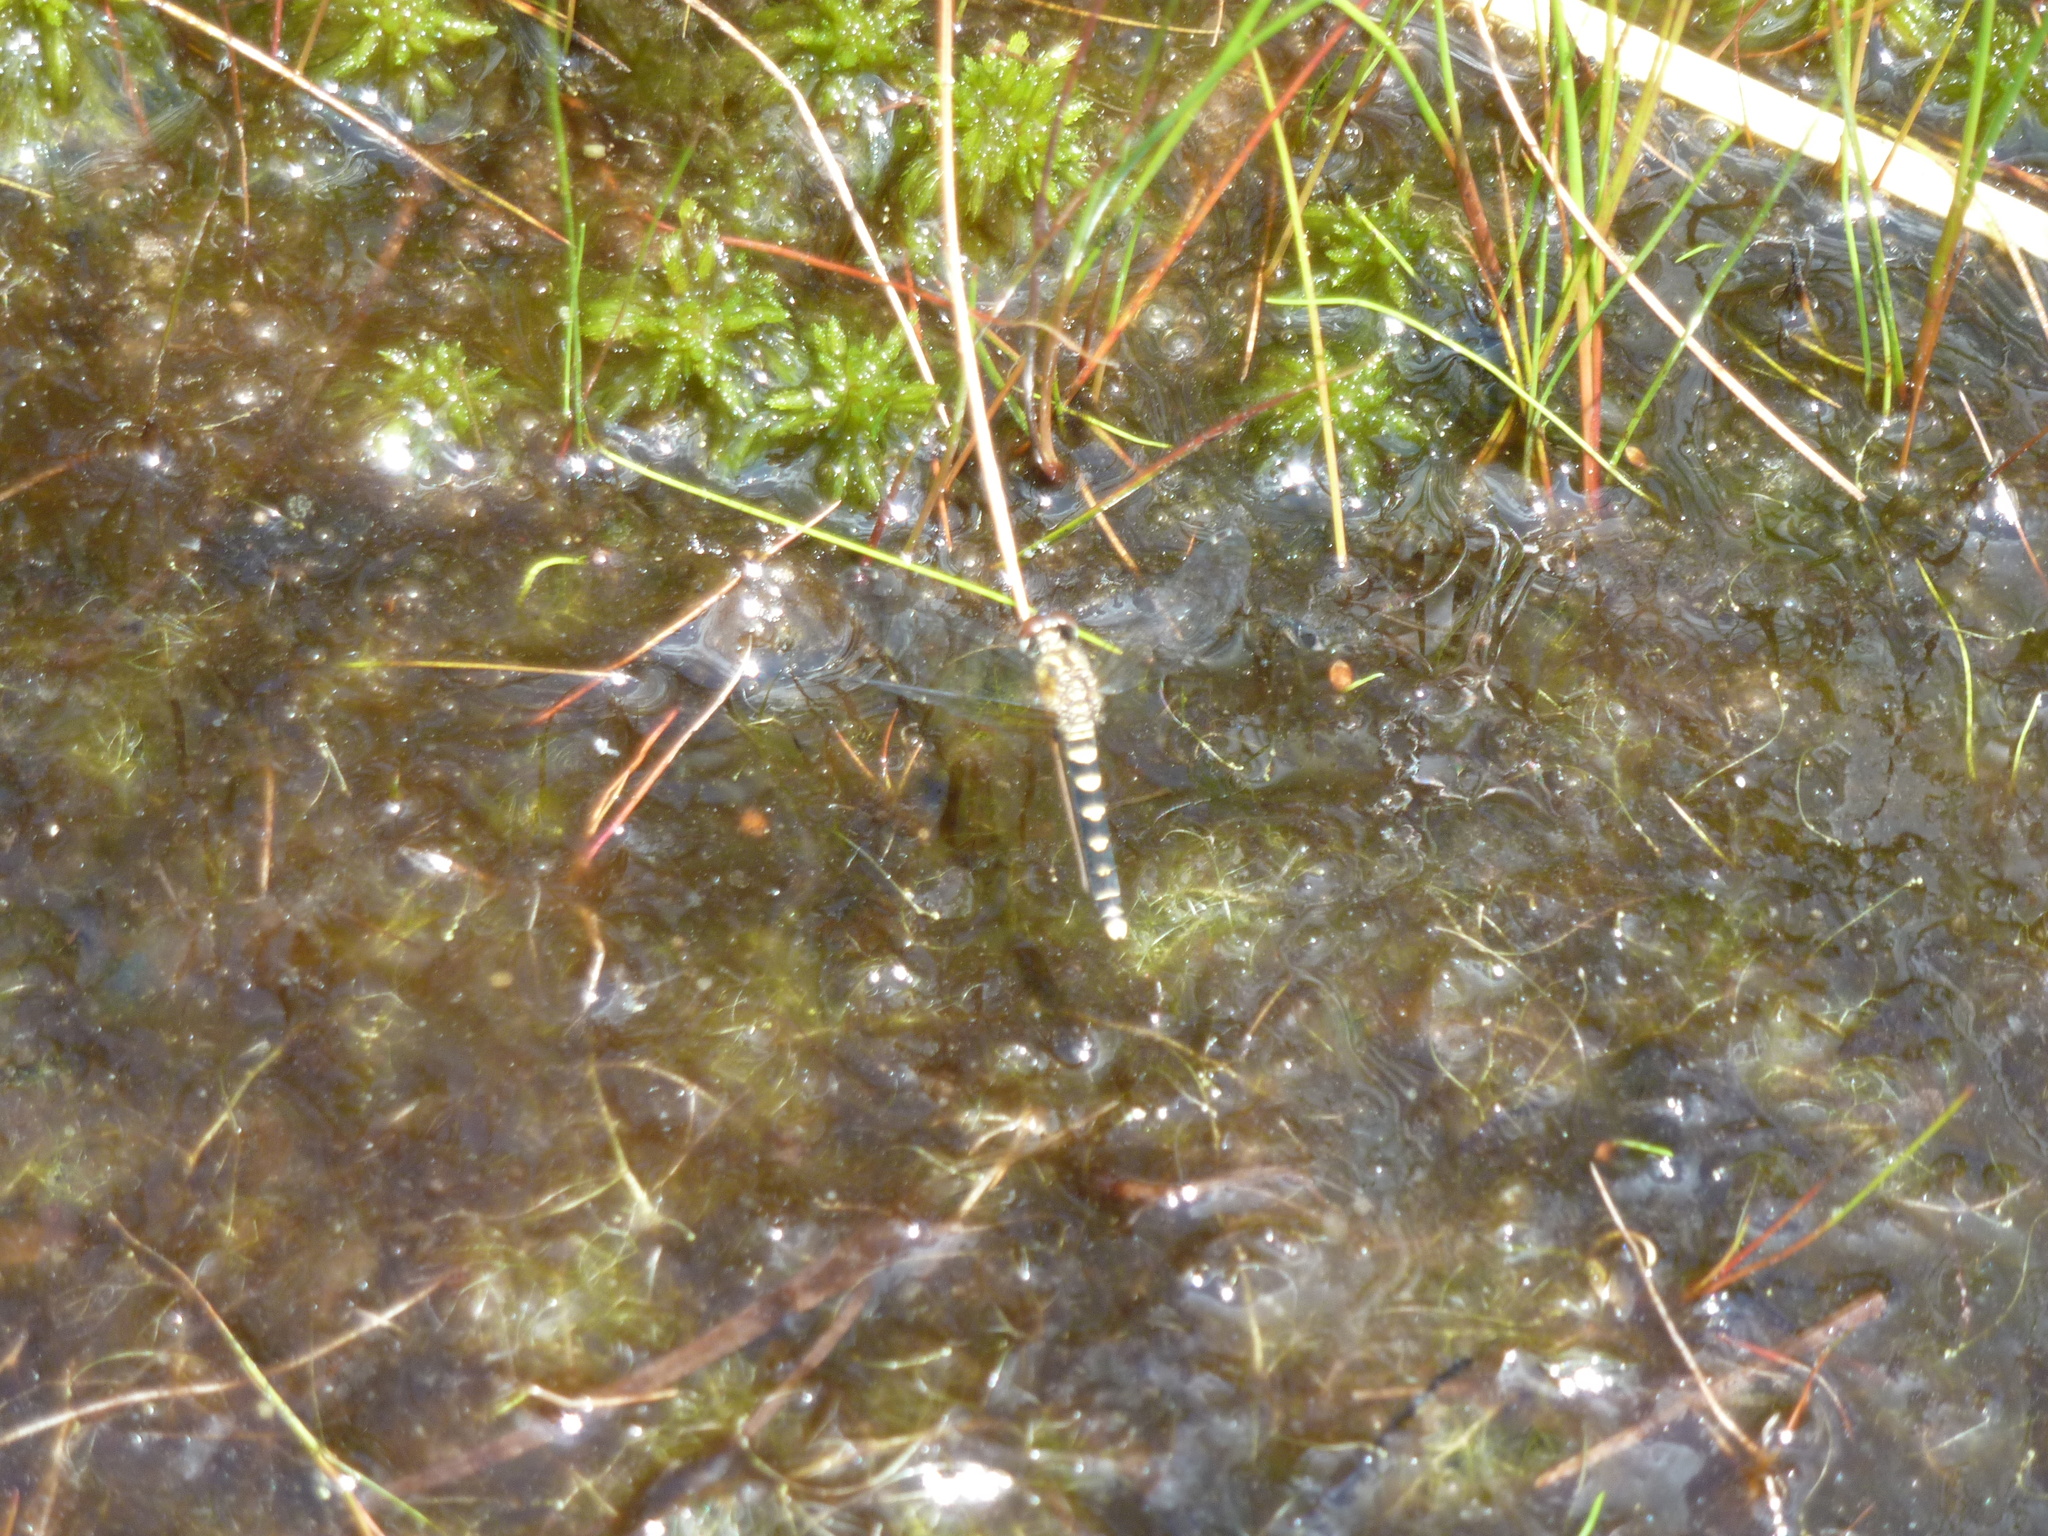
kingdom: Animalia
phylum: Arthropoda
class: Insecta
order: Odonata
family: Libellulidae
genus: Nannothemis
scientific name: Nannothemis bella
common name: Elfin skimmer
